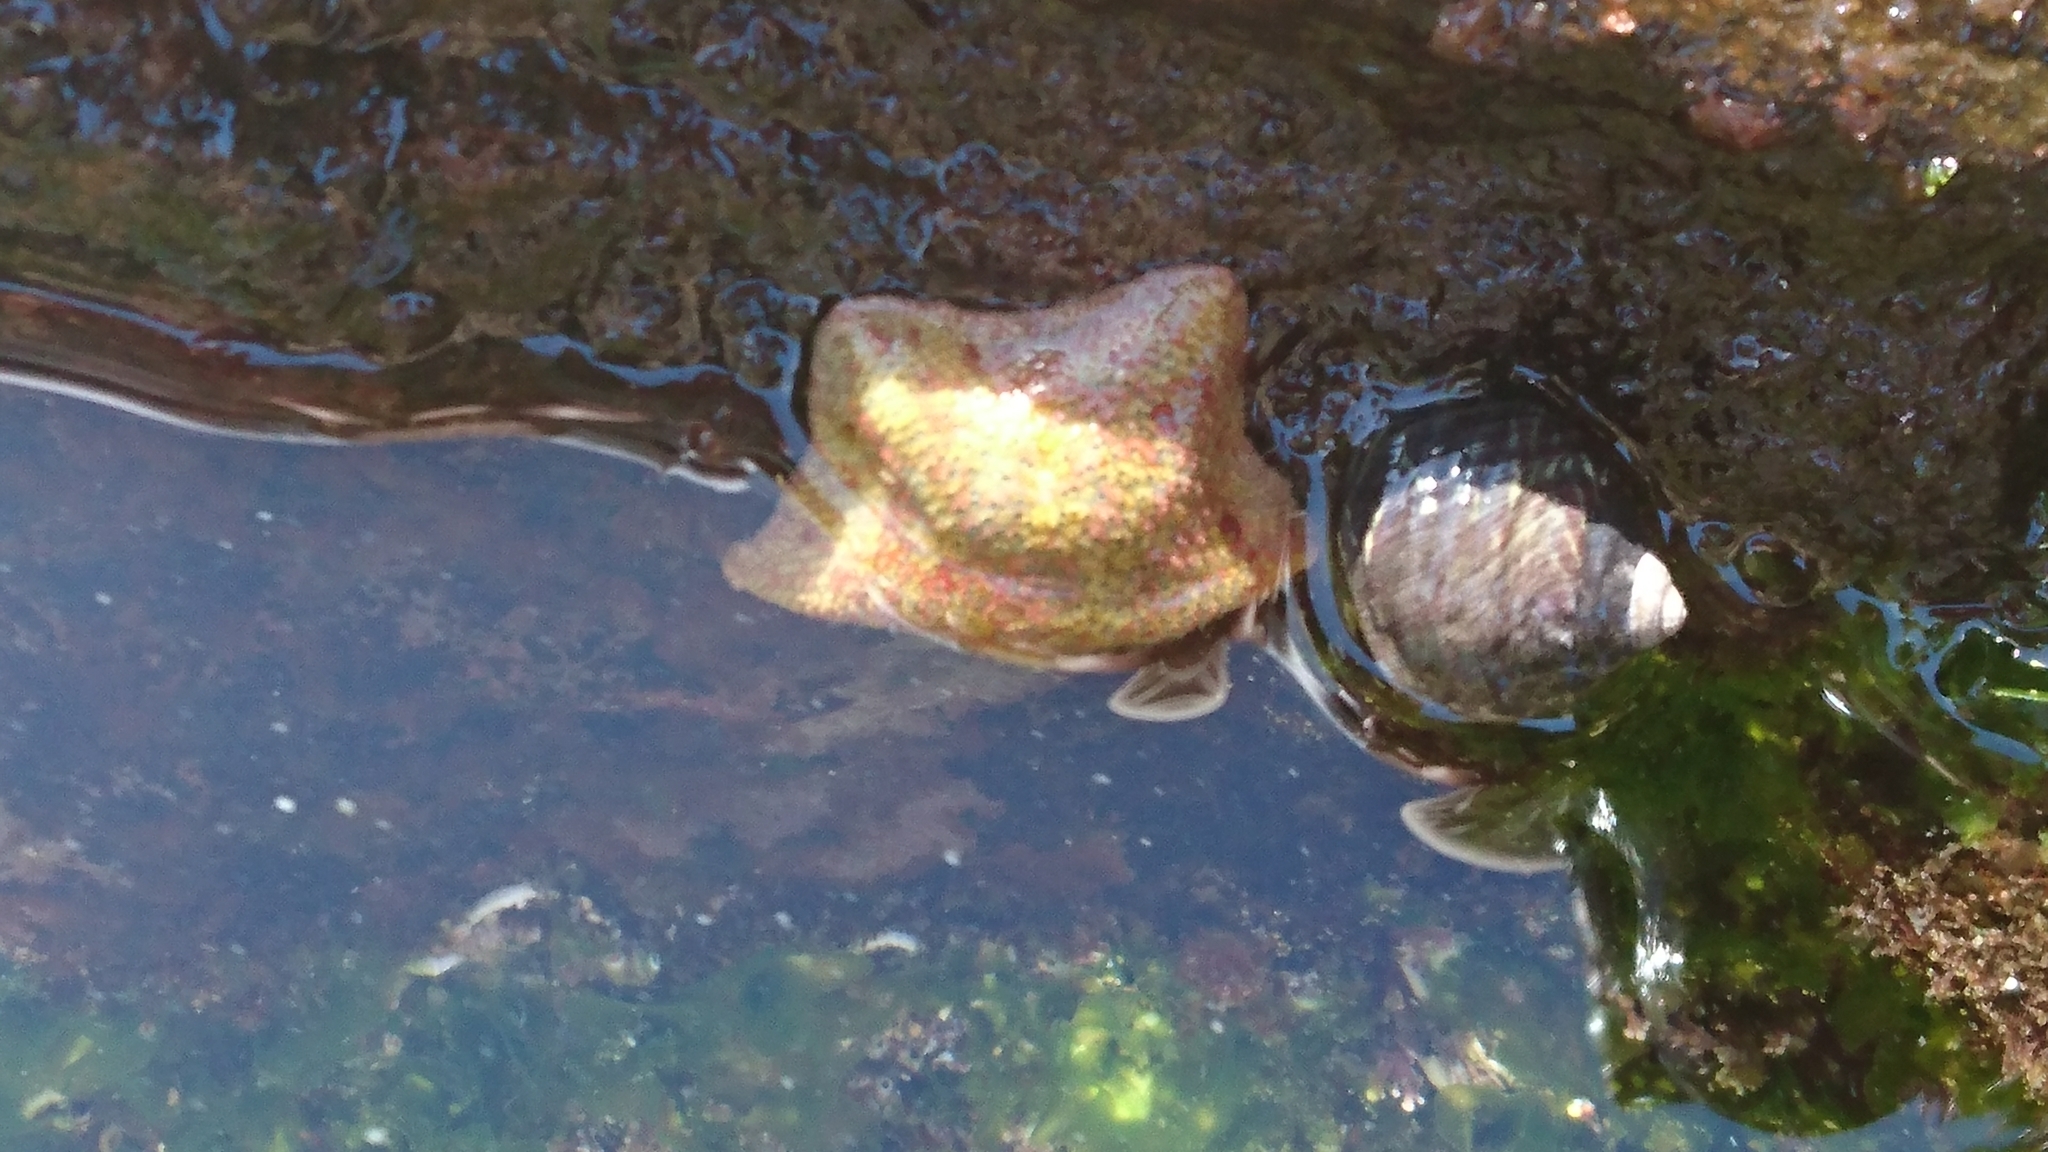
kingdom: Animalia
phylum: Echinodermata
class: Asteroidea
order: Valvatida
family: Asterinidae
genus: Parvulastra
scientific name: Parvulastra exigua
